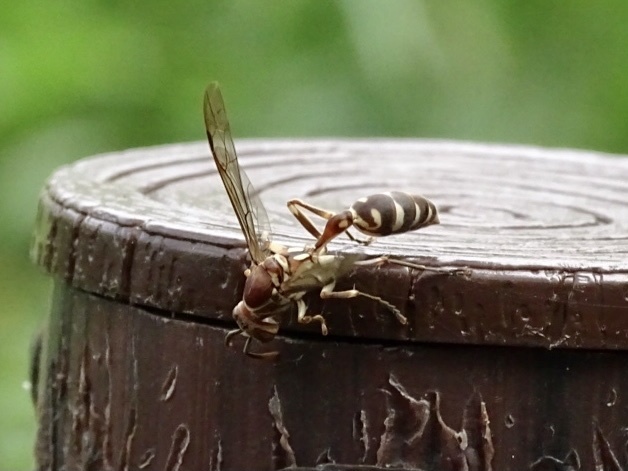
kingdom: Animalia
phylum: Arthropoda
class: Insecta
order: Hymenoptera
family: Vespidae
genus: Parapolybia
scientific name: Parapolybia nodosa
